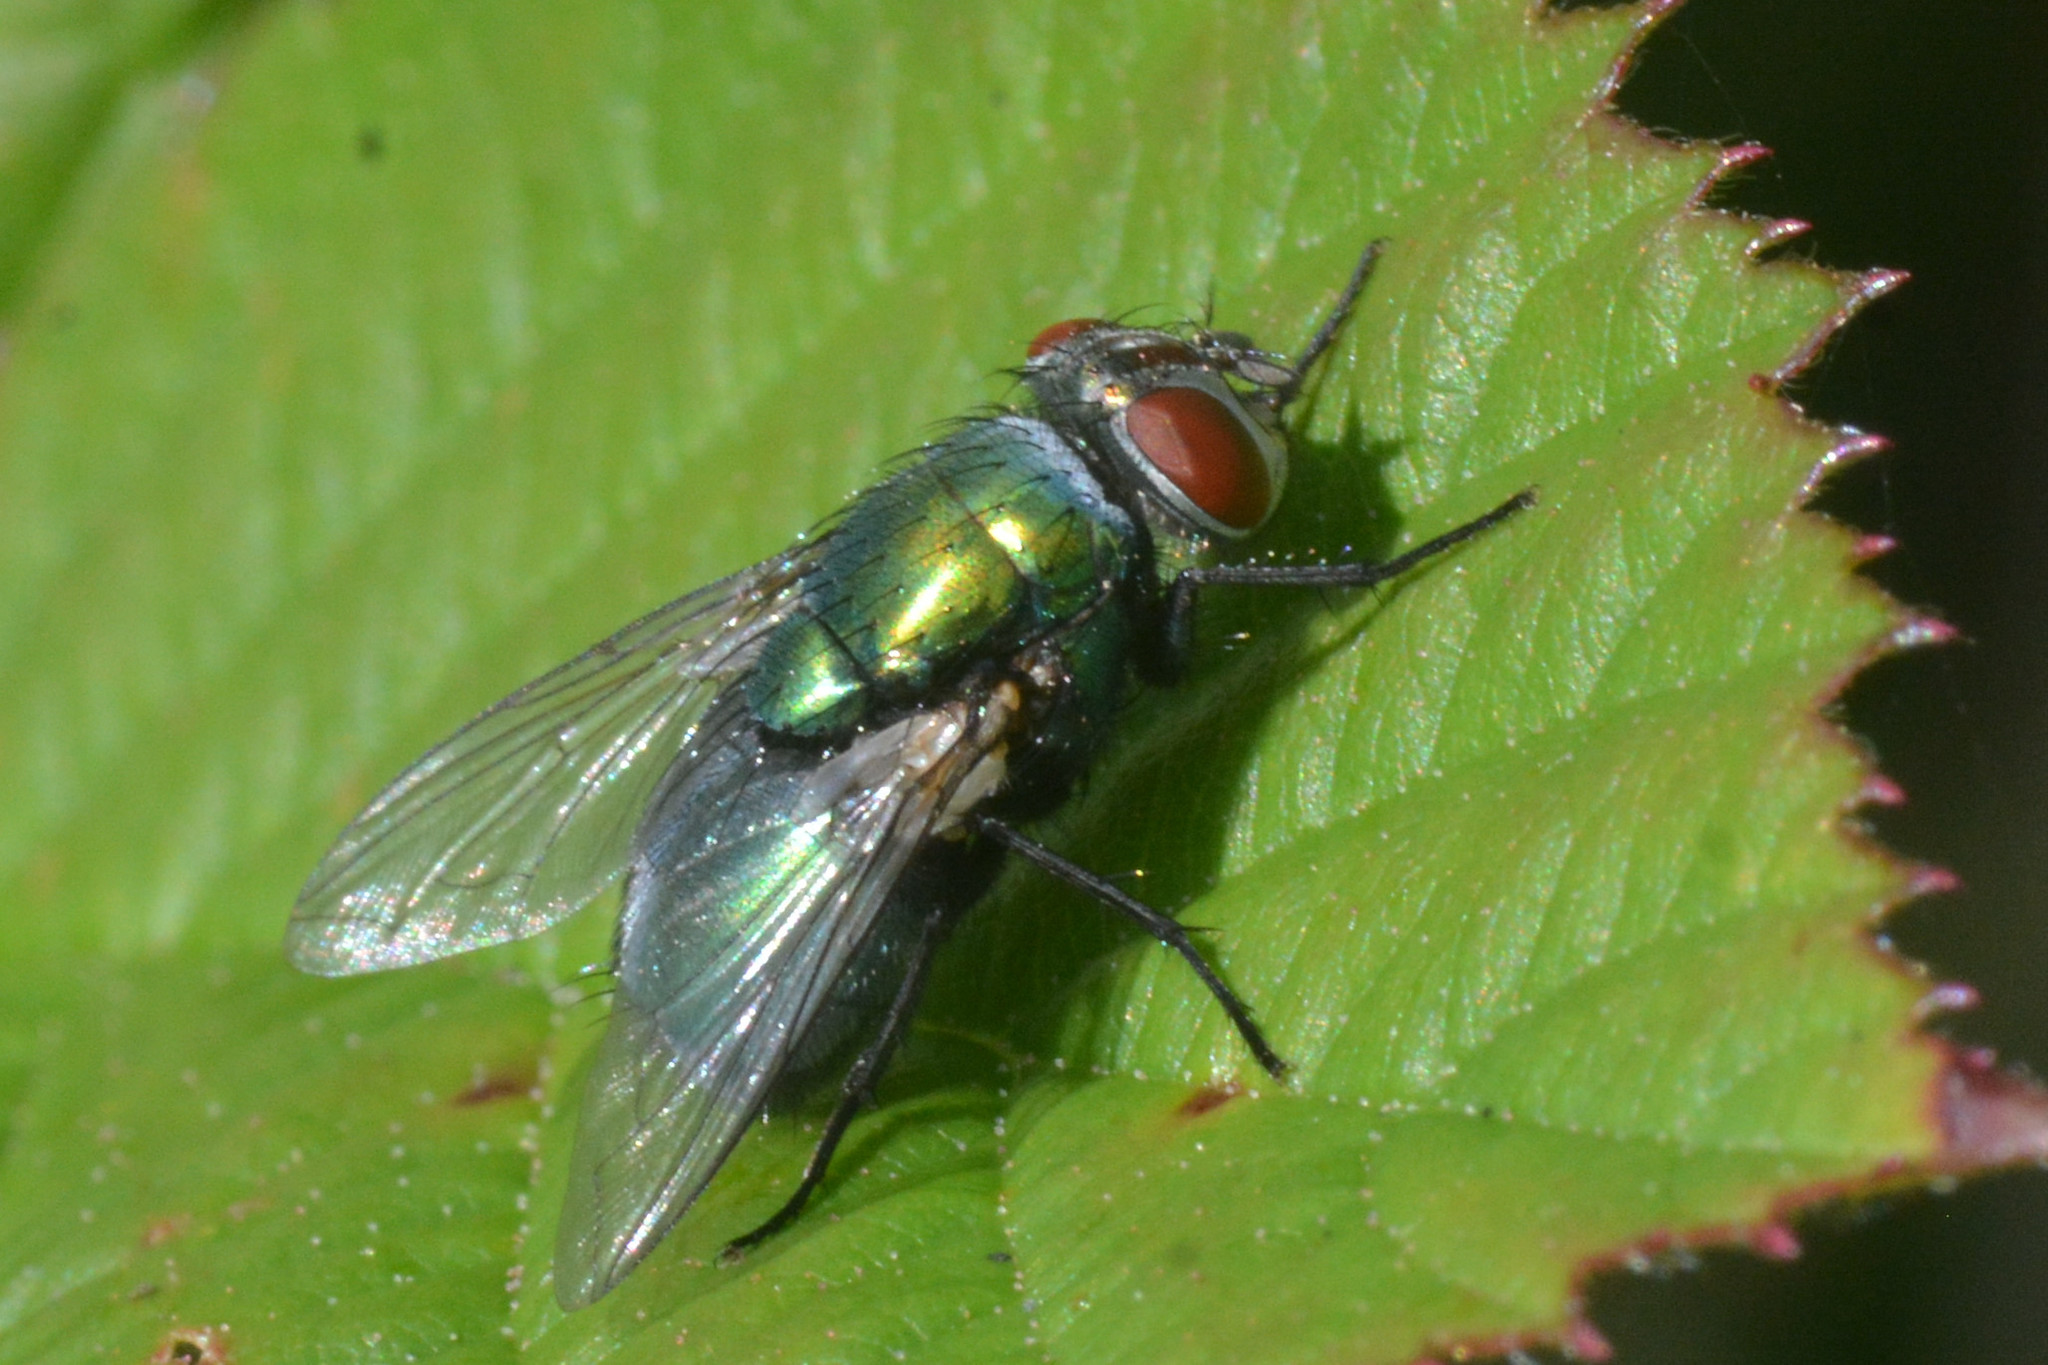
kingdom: Animalia
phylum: Arthropoda
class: Insecta
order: Diptera
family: Calliphoridae
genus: Lucilia
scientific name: Lucilia sericata
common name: Blow fly
